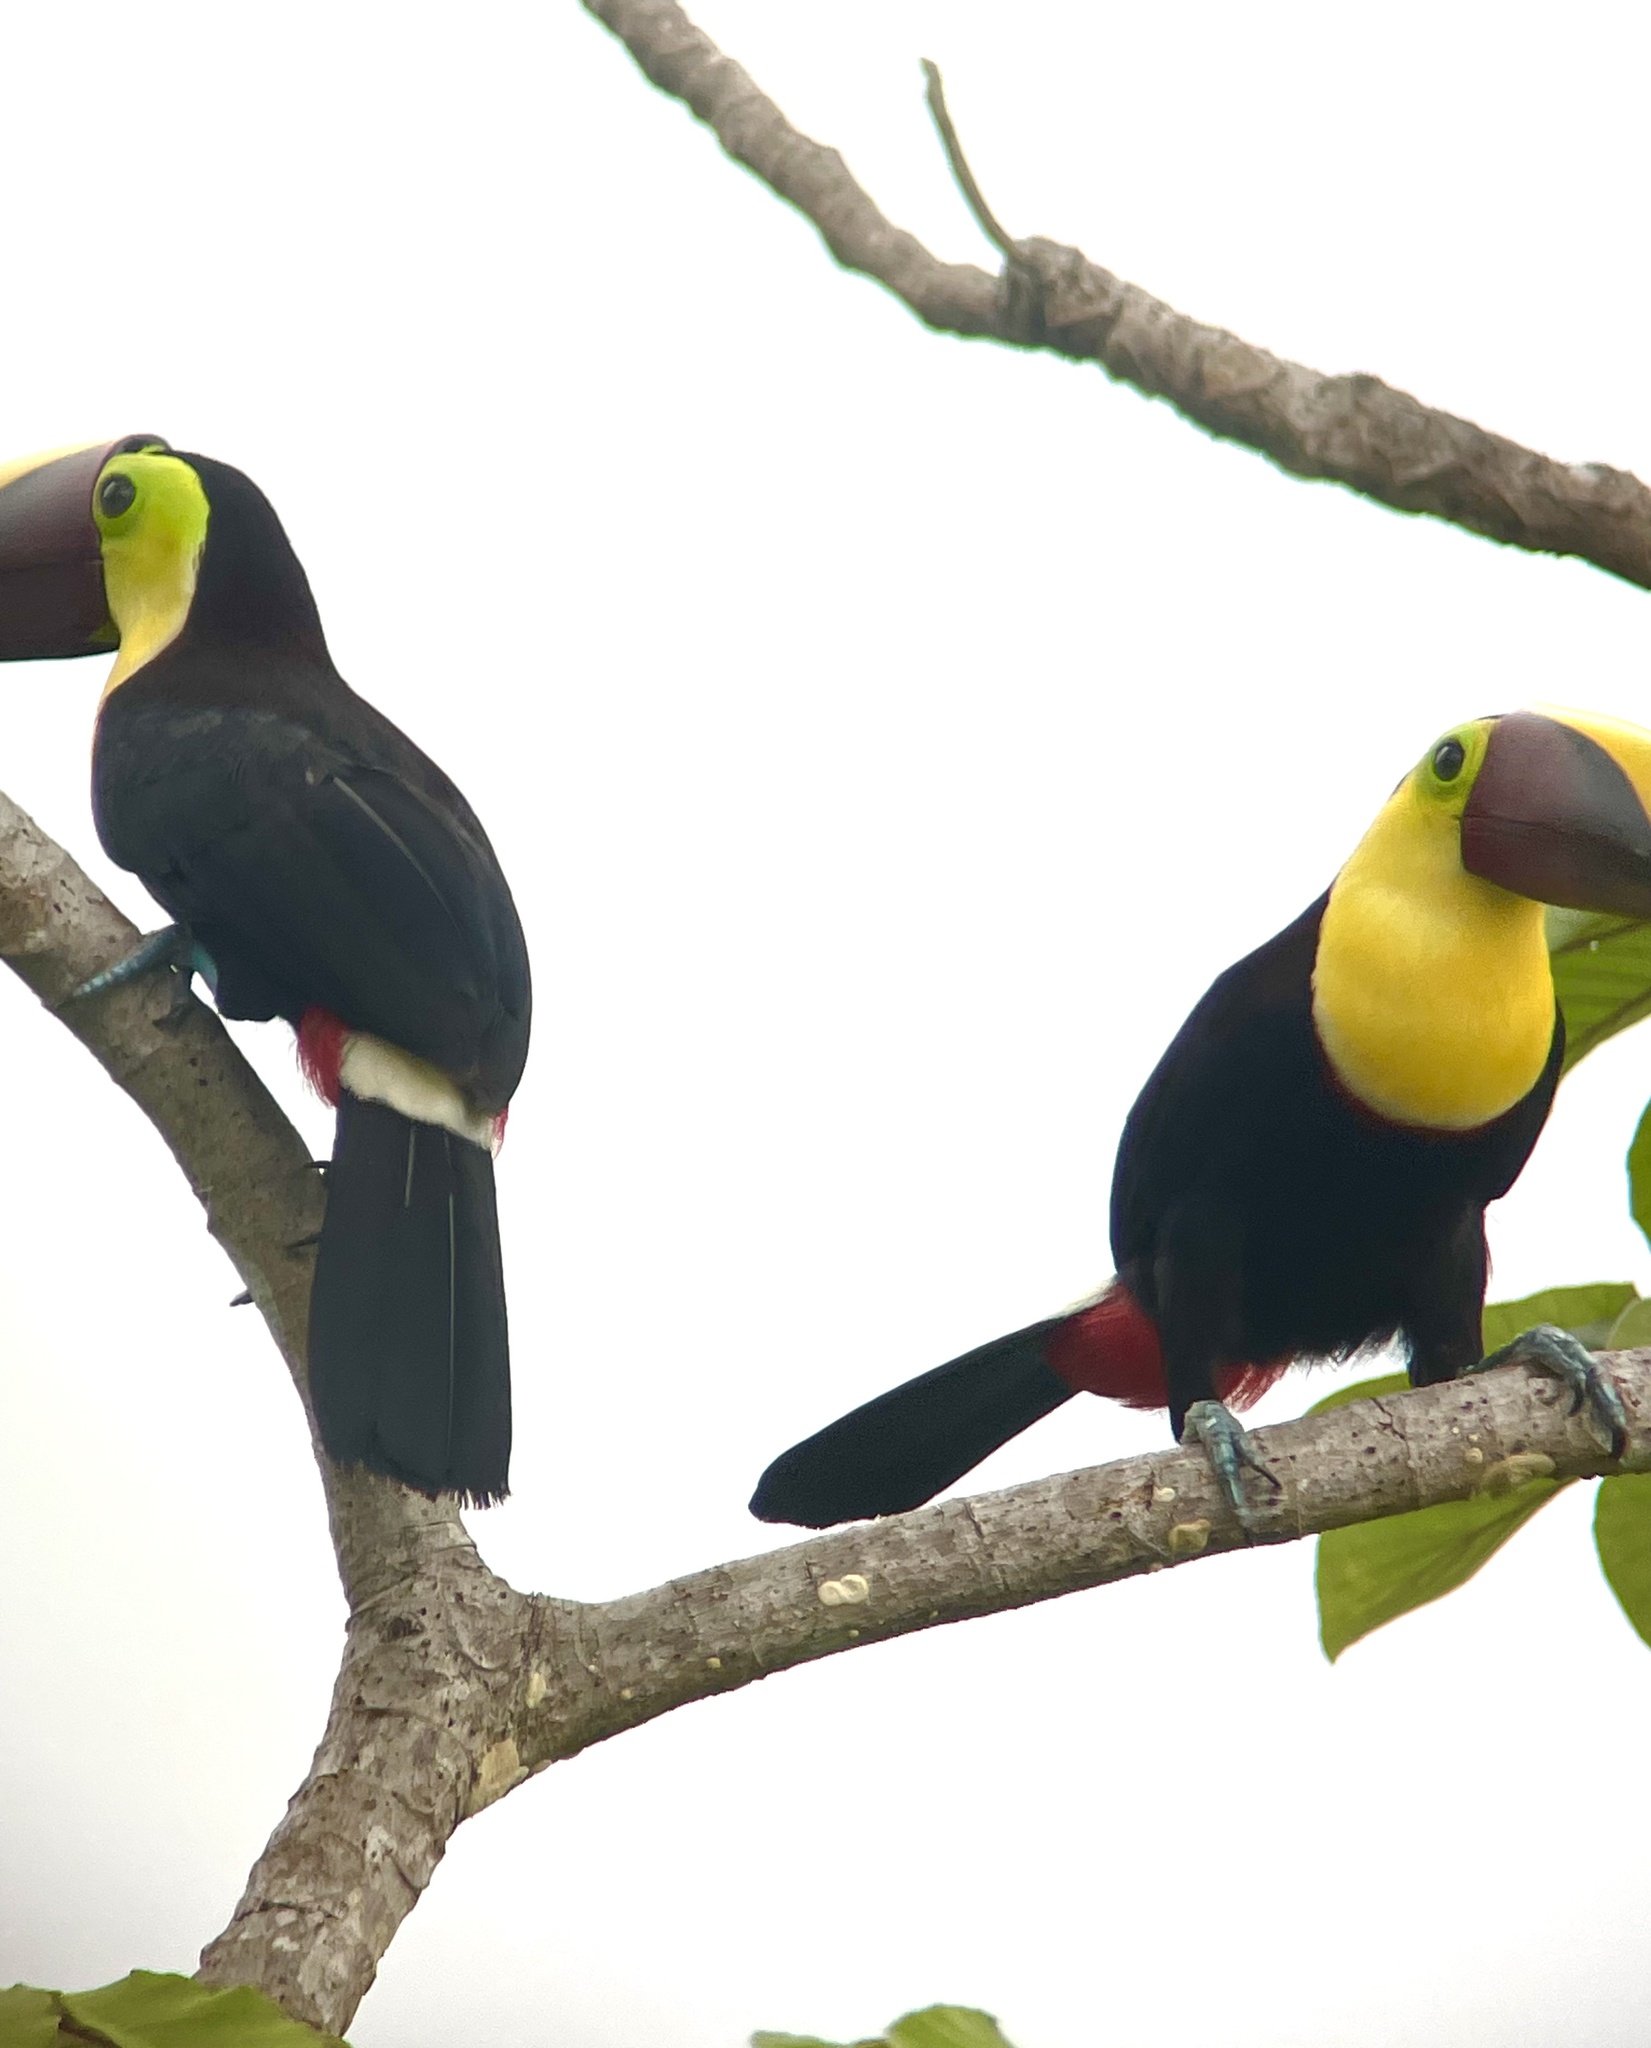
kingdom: Animalia
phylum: Chordata
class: Aves
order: Piciformes
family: Ramphastidae
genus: Ramphastos
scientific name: Ramphastos ambiguus
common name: Yellow-throated toucan
